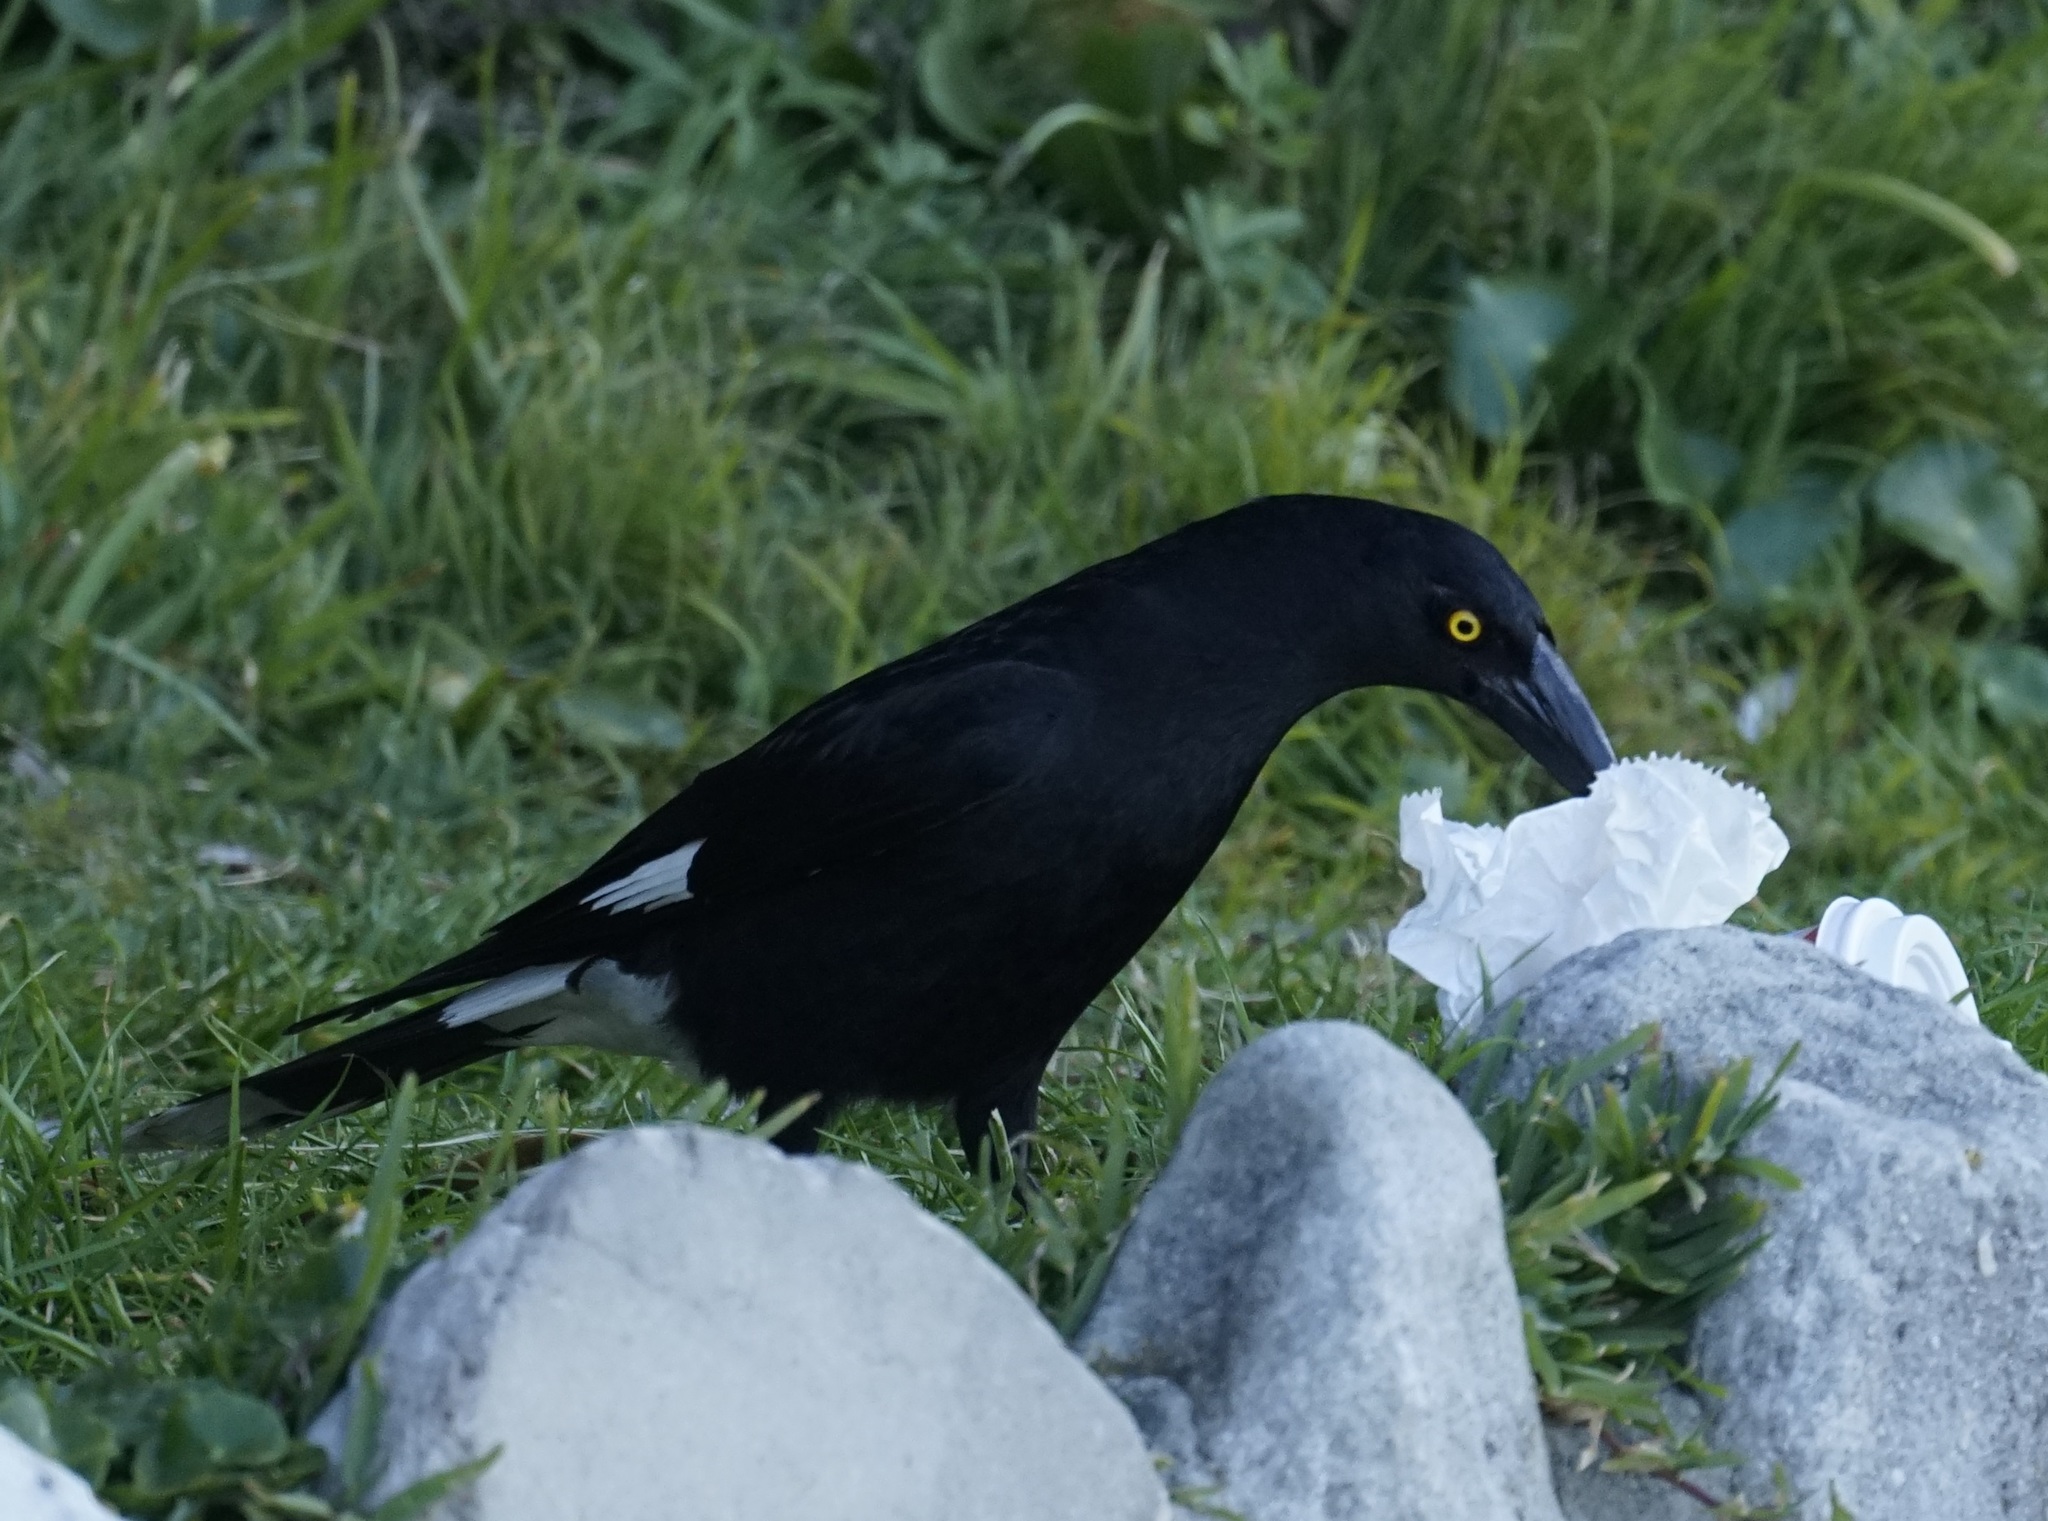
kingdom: Animalia
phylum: Chordata
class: Aves
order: Passeriformes
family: Cracticidae
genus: Strepera
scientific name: Strepera graculina
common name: Pied currawong
